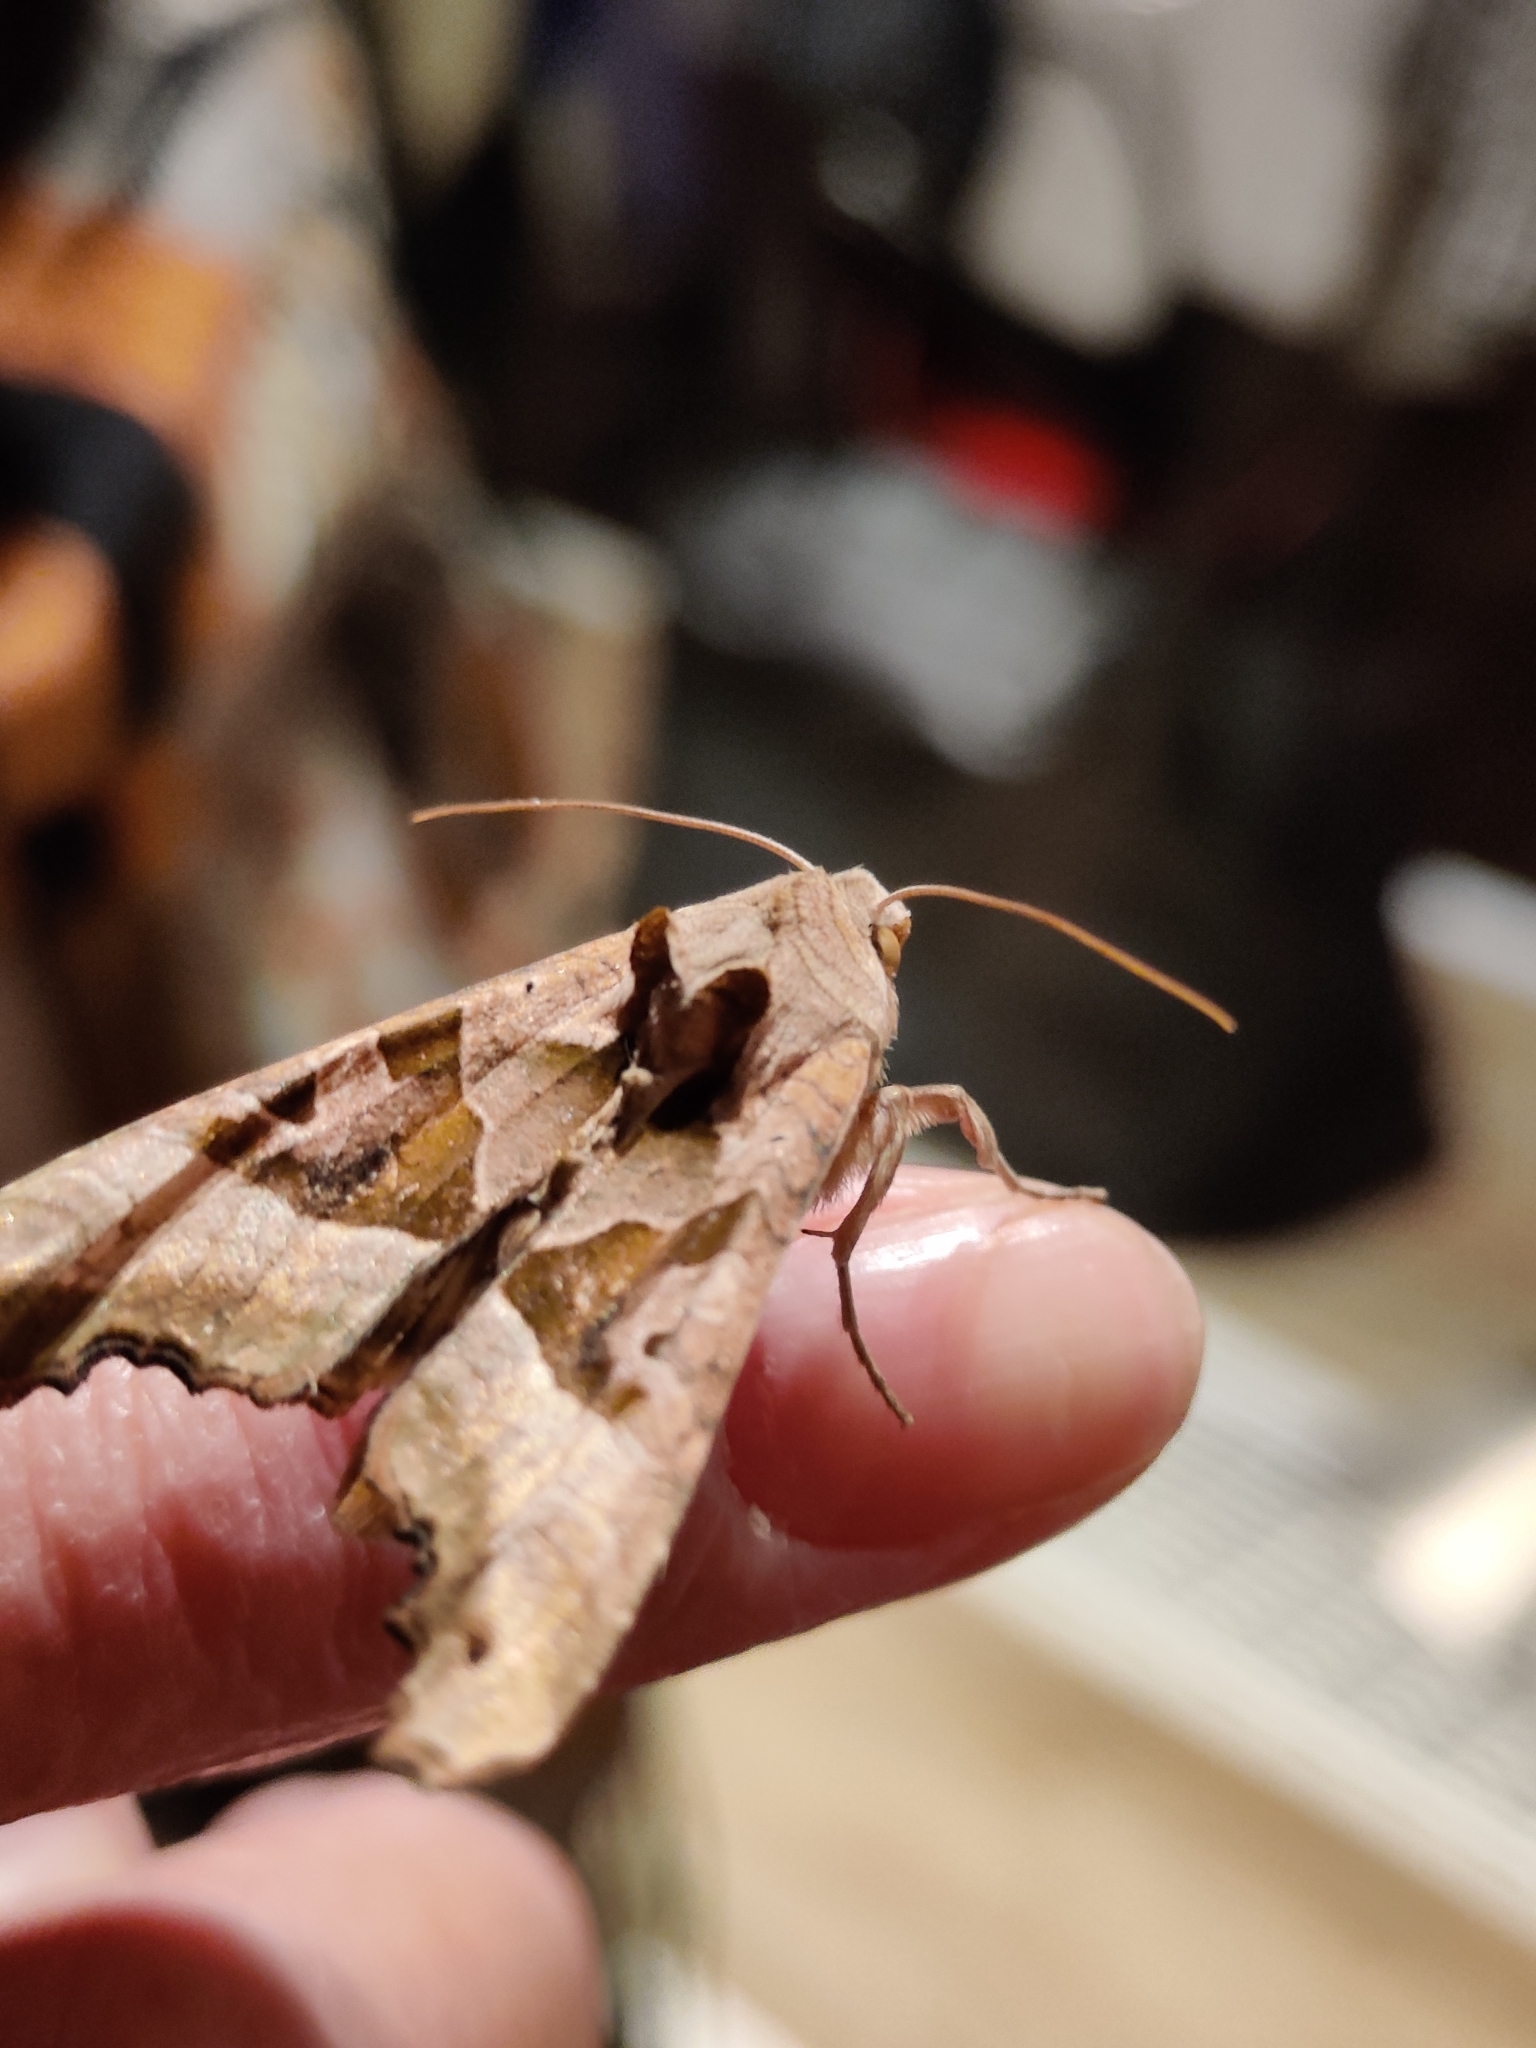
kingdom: Animalia
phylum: Arthropoda
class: Insecta
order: Lepidoptera
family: Noctuidae
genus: Phlogophora
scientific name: Phlogophora meticulosa
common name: Angle shades
